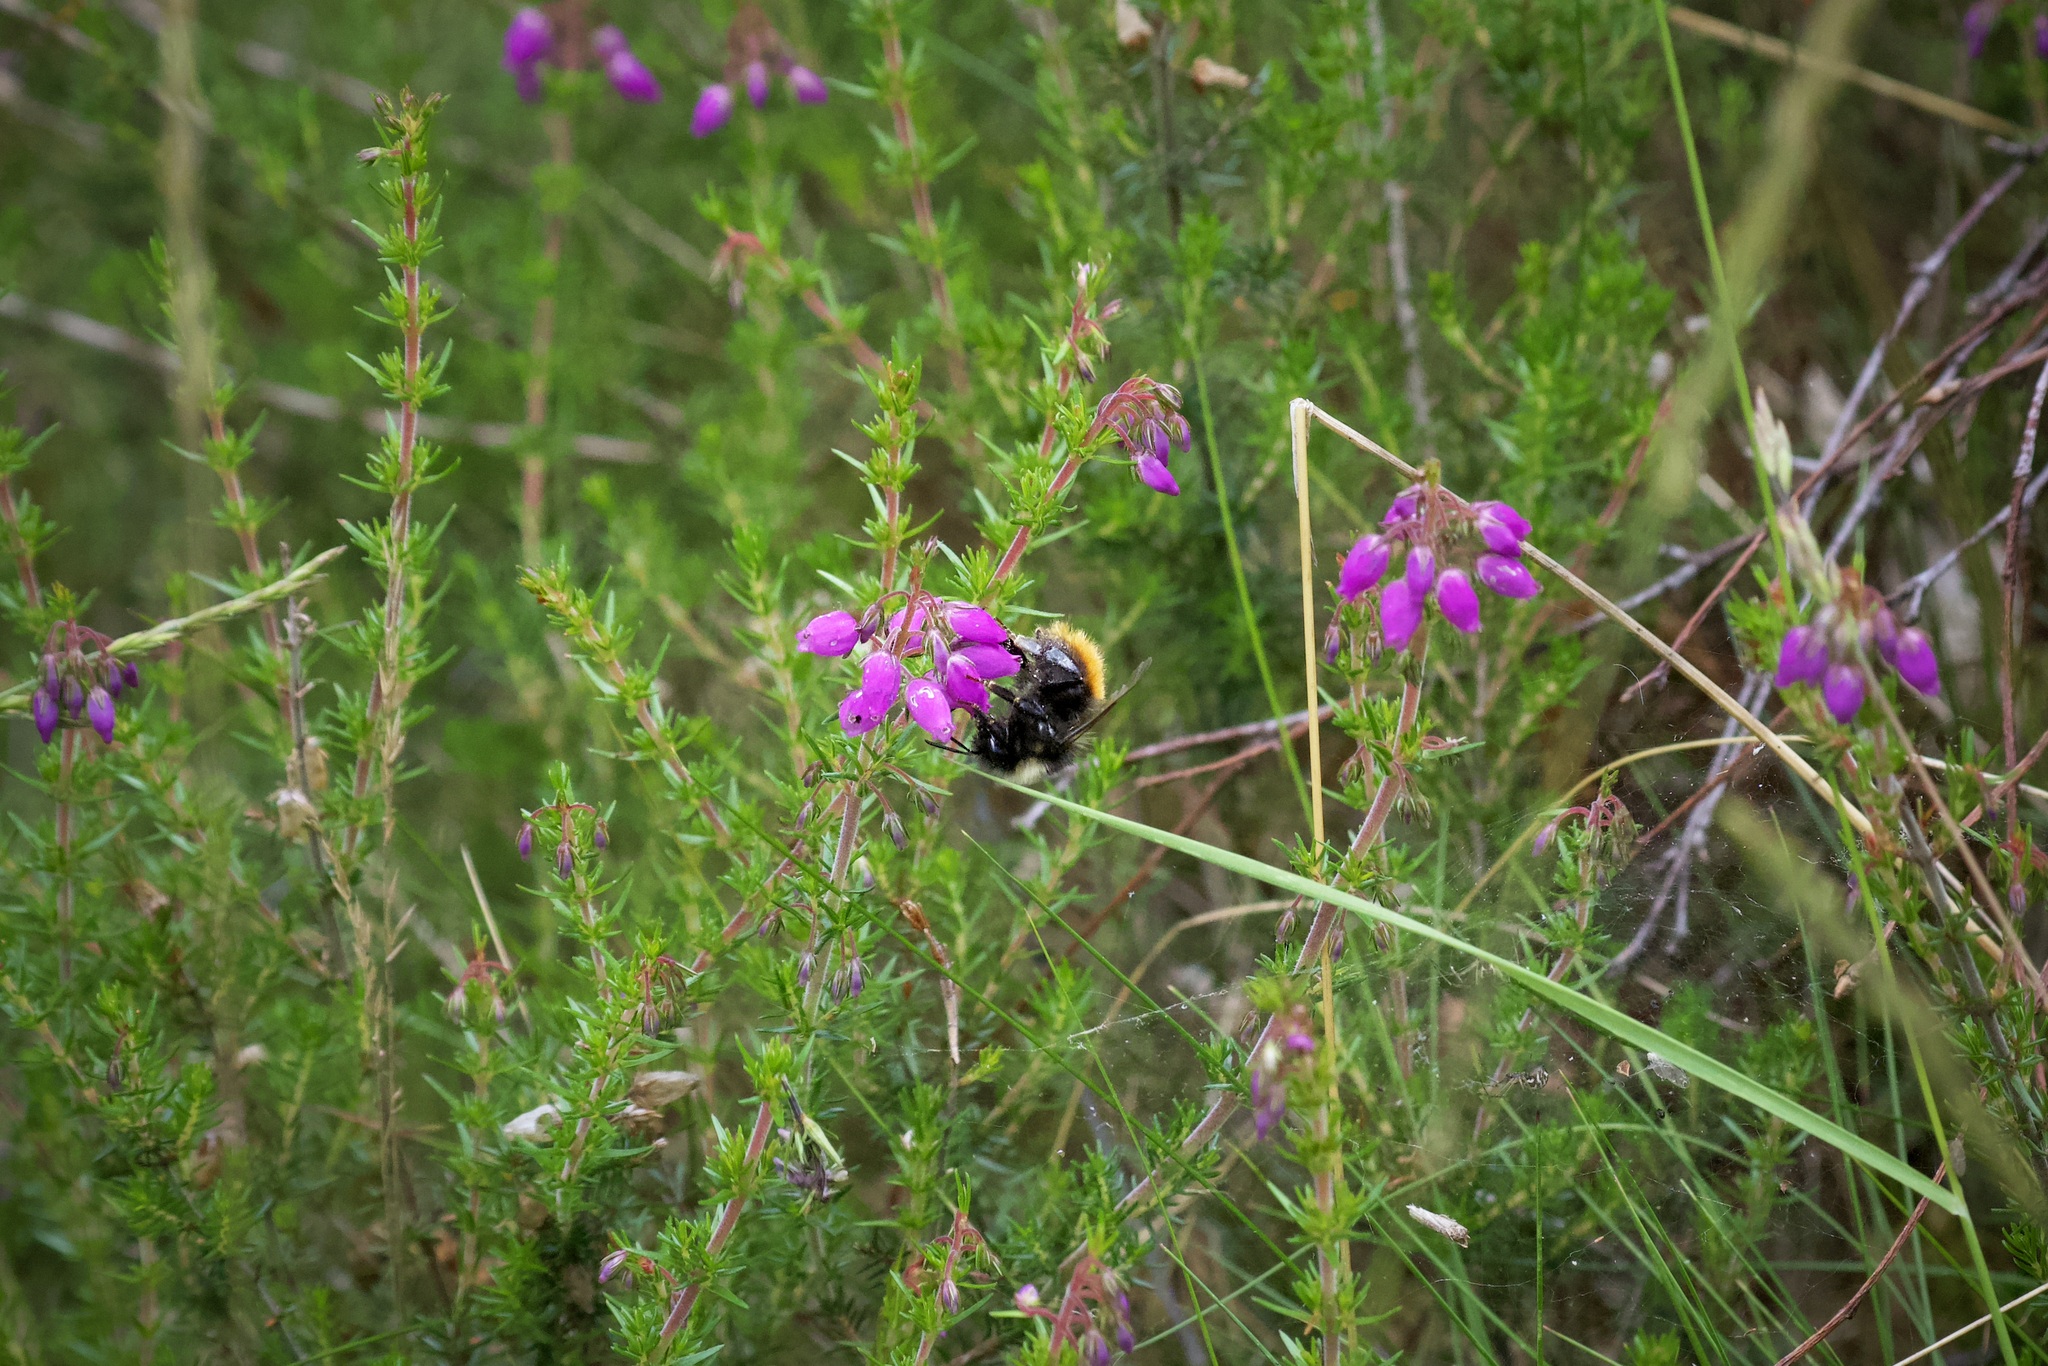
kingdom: Animalia
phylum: Arthropoda
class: Insecta
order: Hymenoptera
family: Apidae
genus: Bombus
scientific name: Bombus monticola
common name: Bilberry humble-bee
